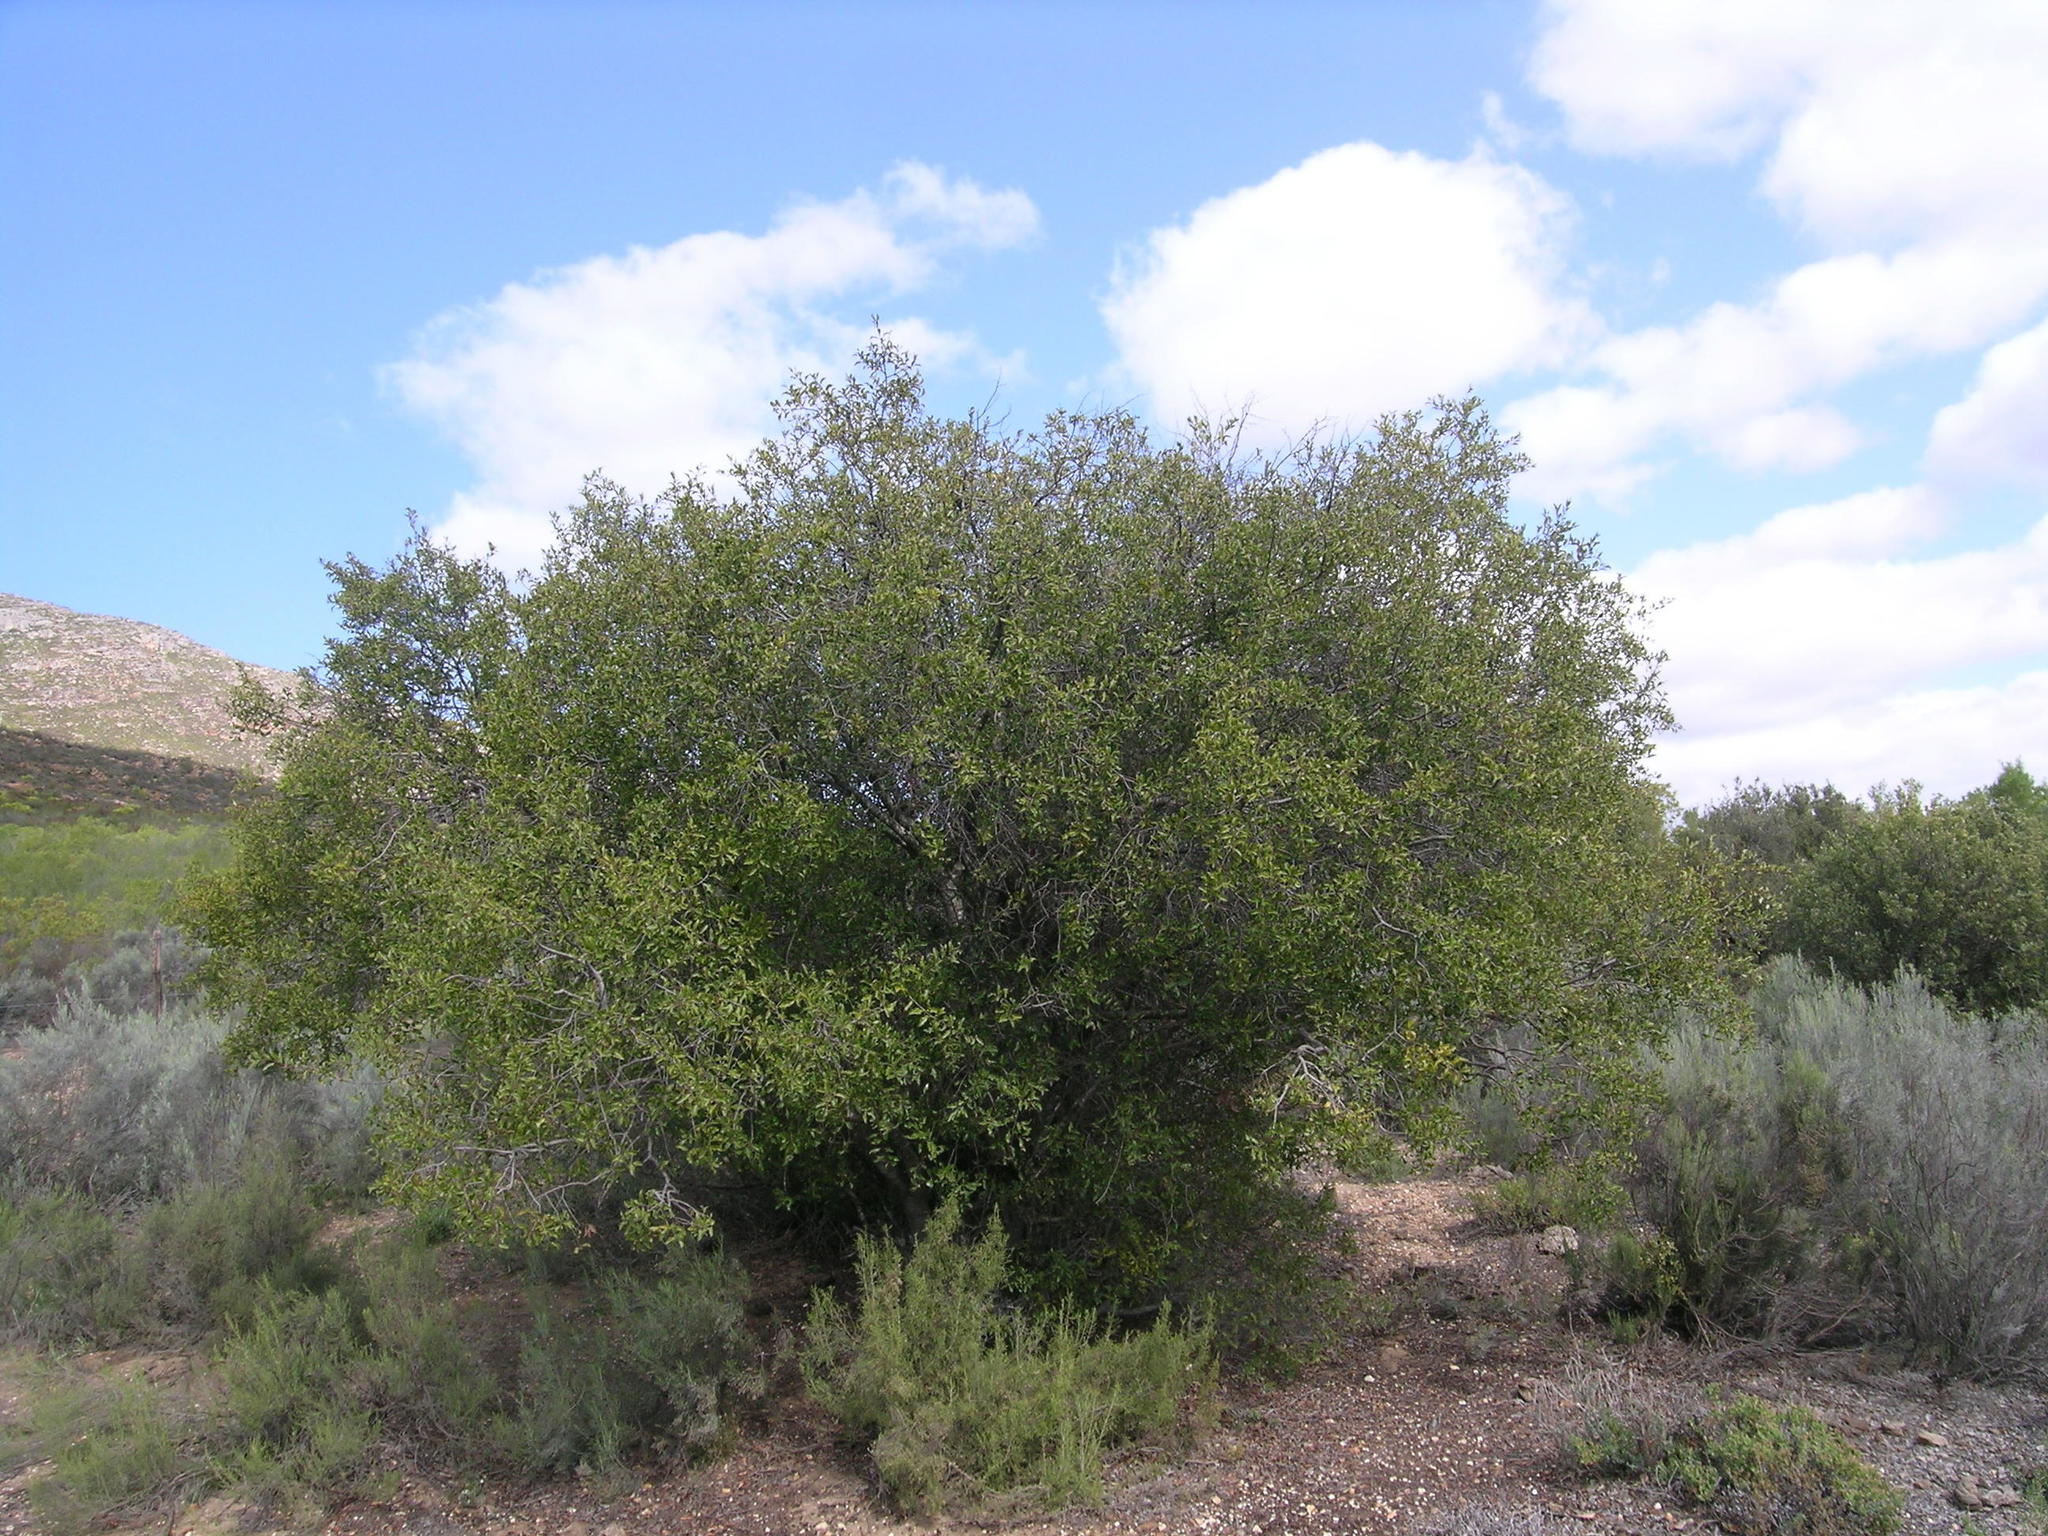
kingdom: Plantae
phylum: Tracheophyta
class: Magnoliopsida
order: Ericales
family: Ebenaceae
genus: Euclea
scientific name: Euclea undulata
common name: Small-leaved guarri
